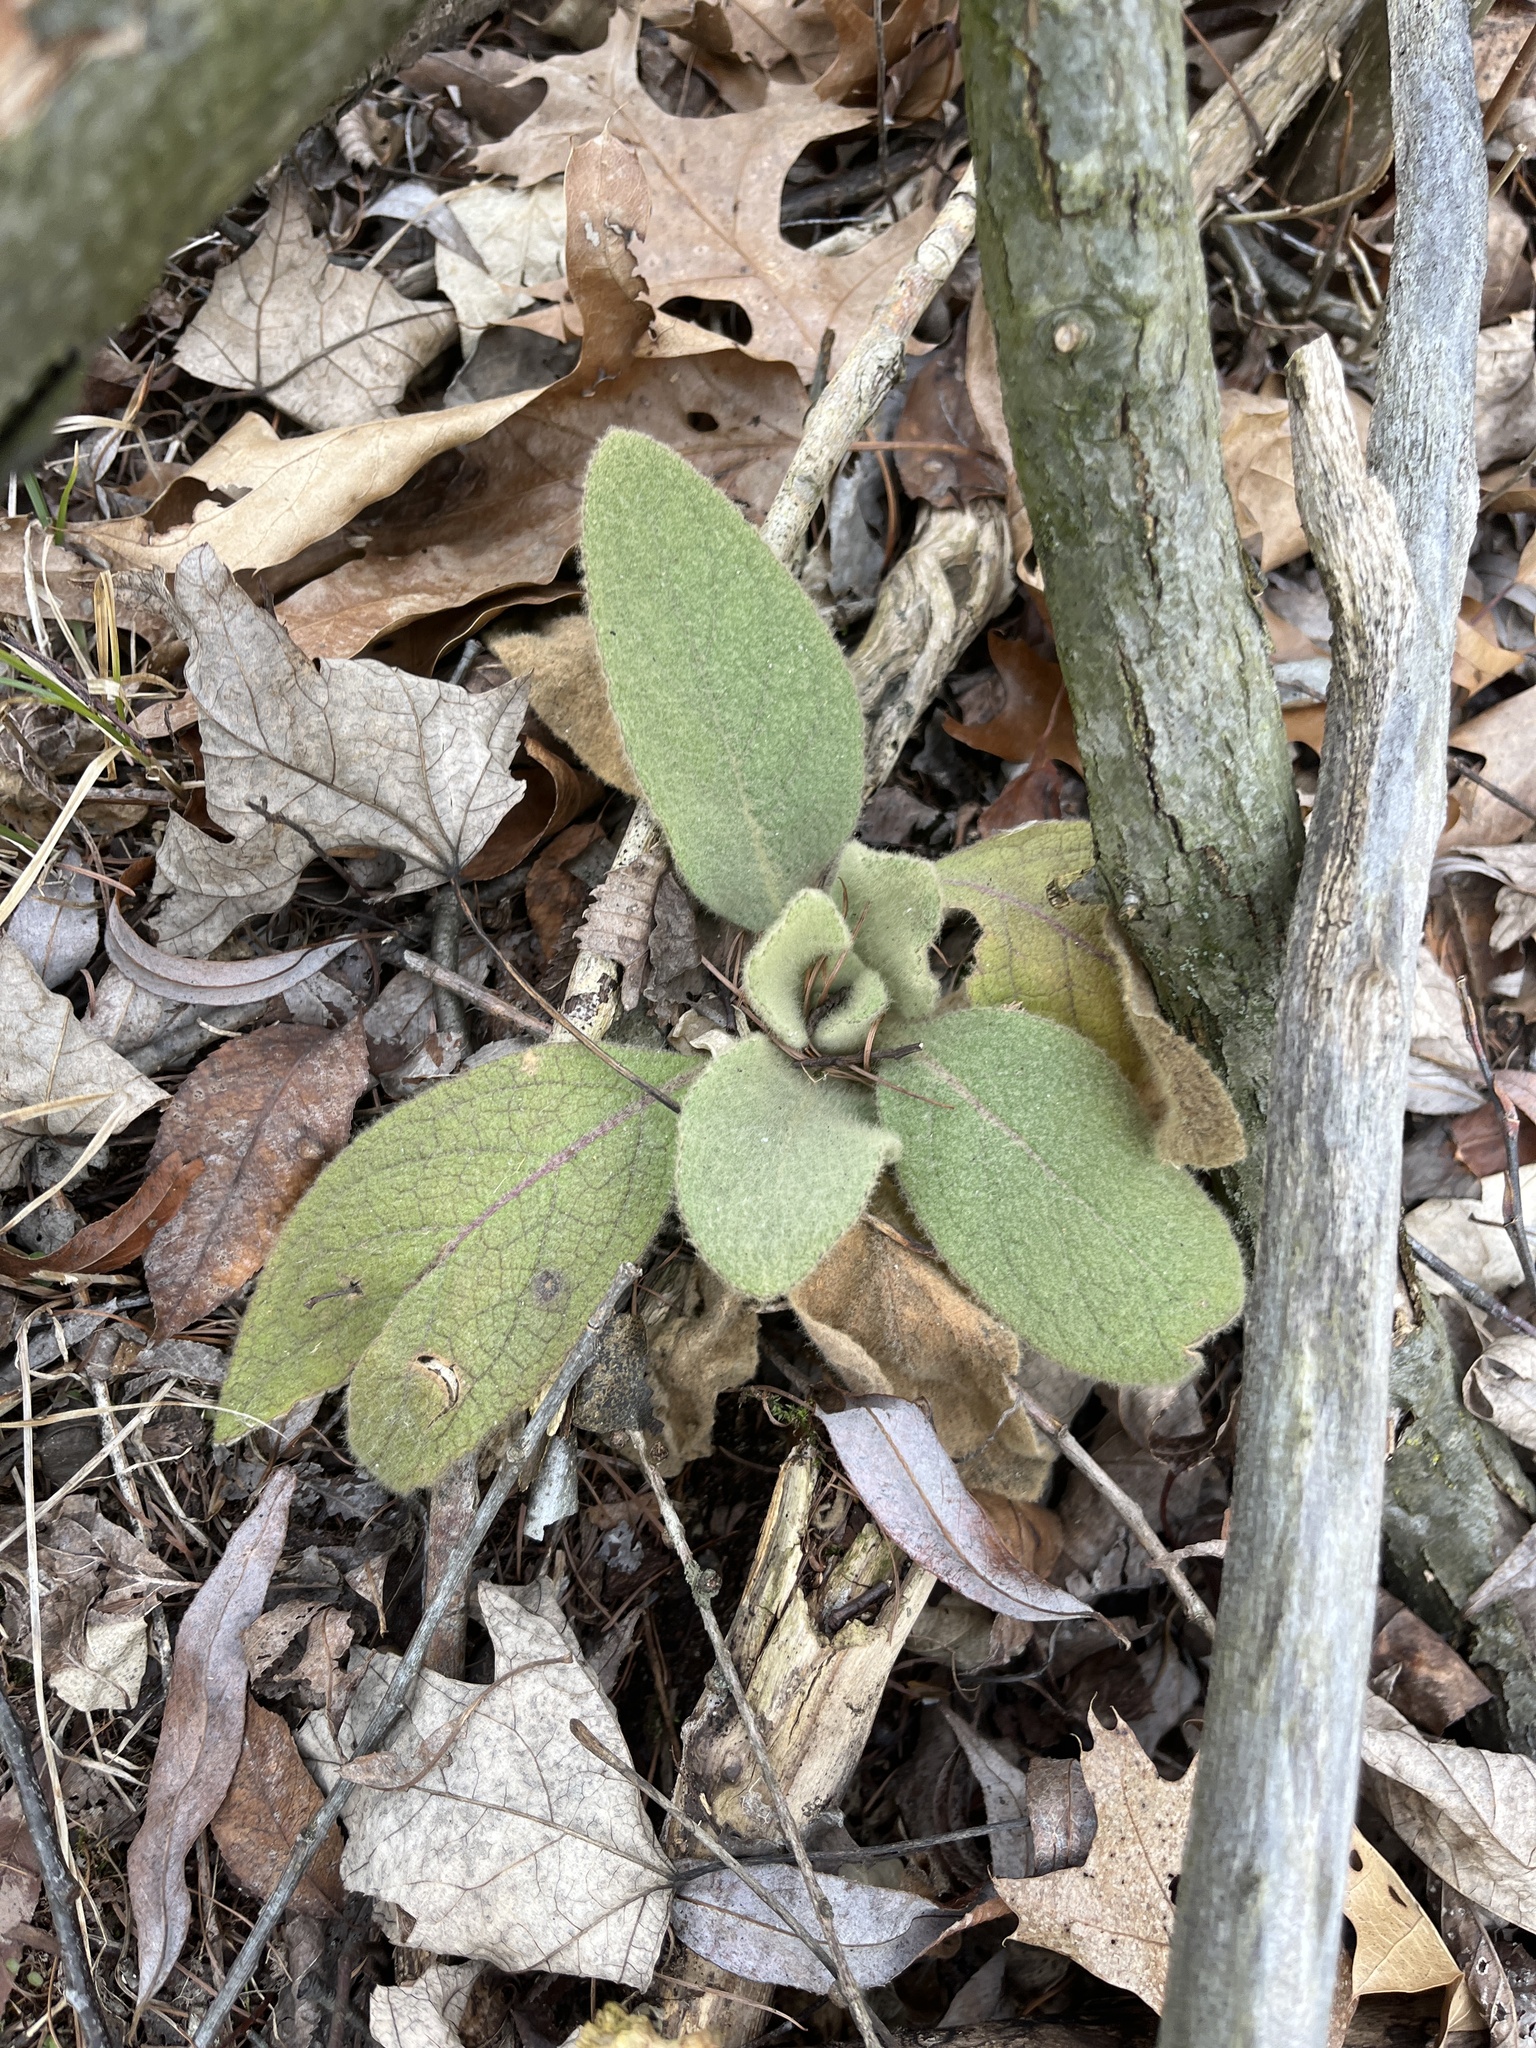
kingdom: Plantae
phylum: Tracheophyta
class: Magnoliopsida
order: Lamiales
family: Scrophulariaceae
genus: Verbascum
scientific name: Verbascum thapsus
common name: Common mullein
